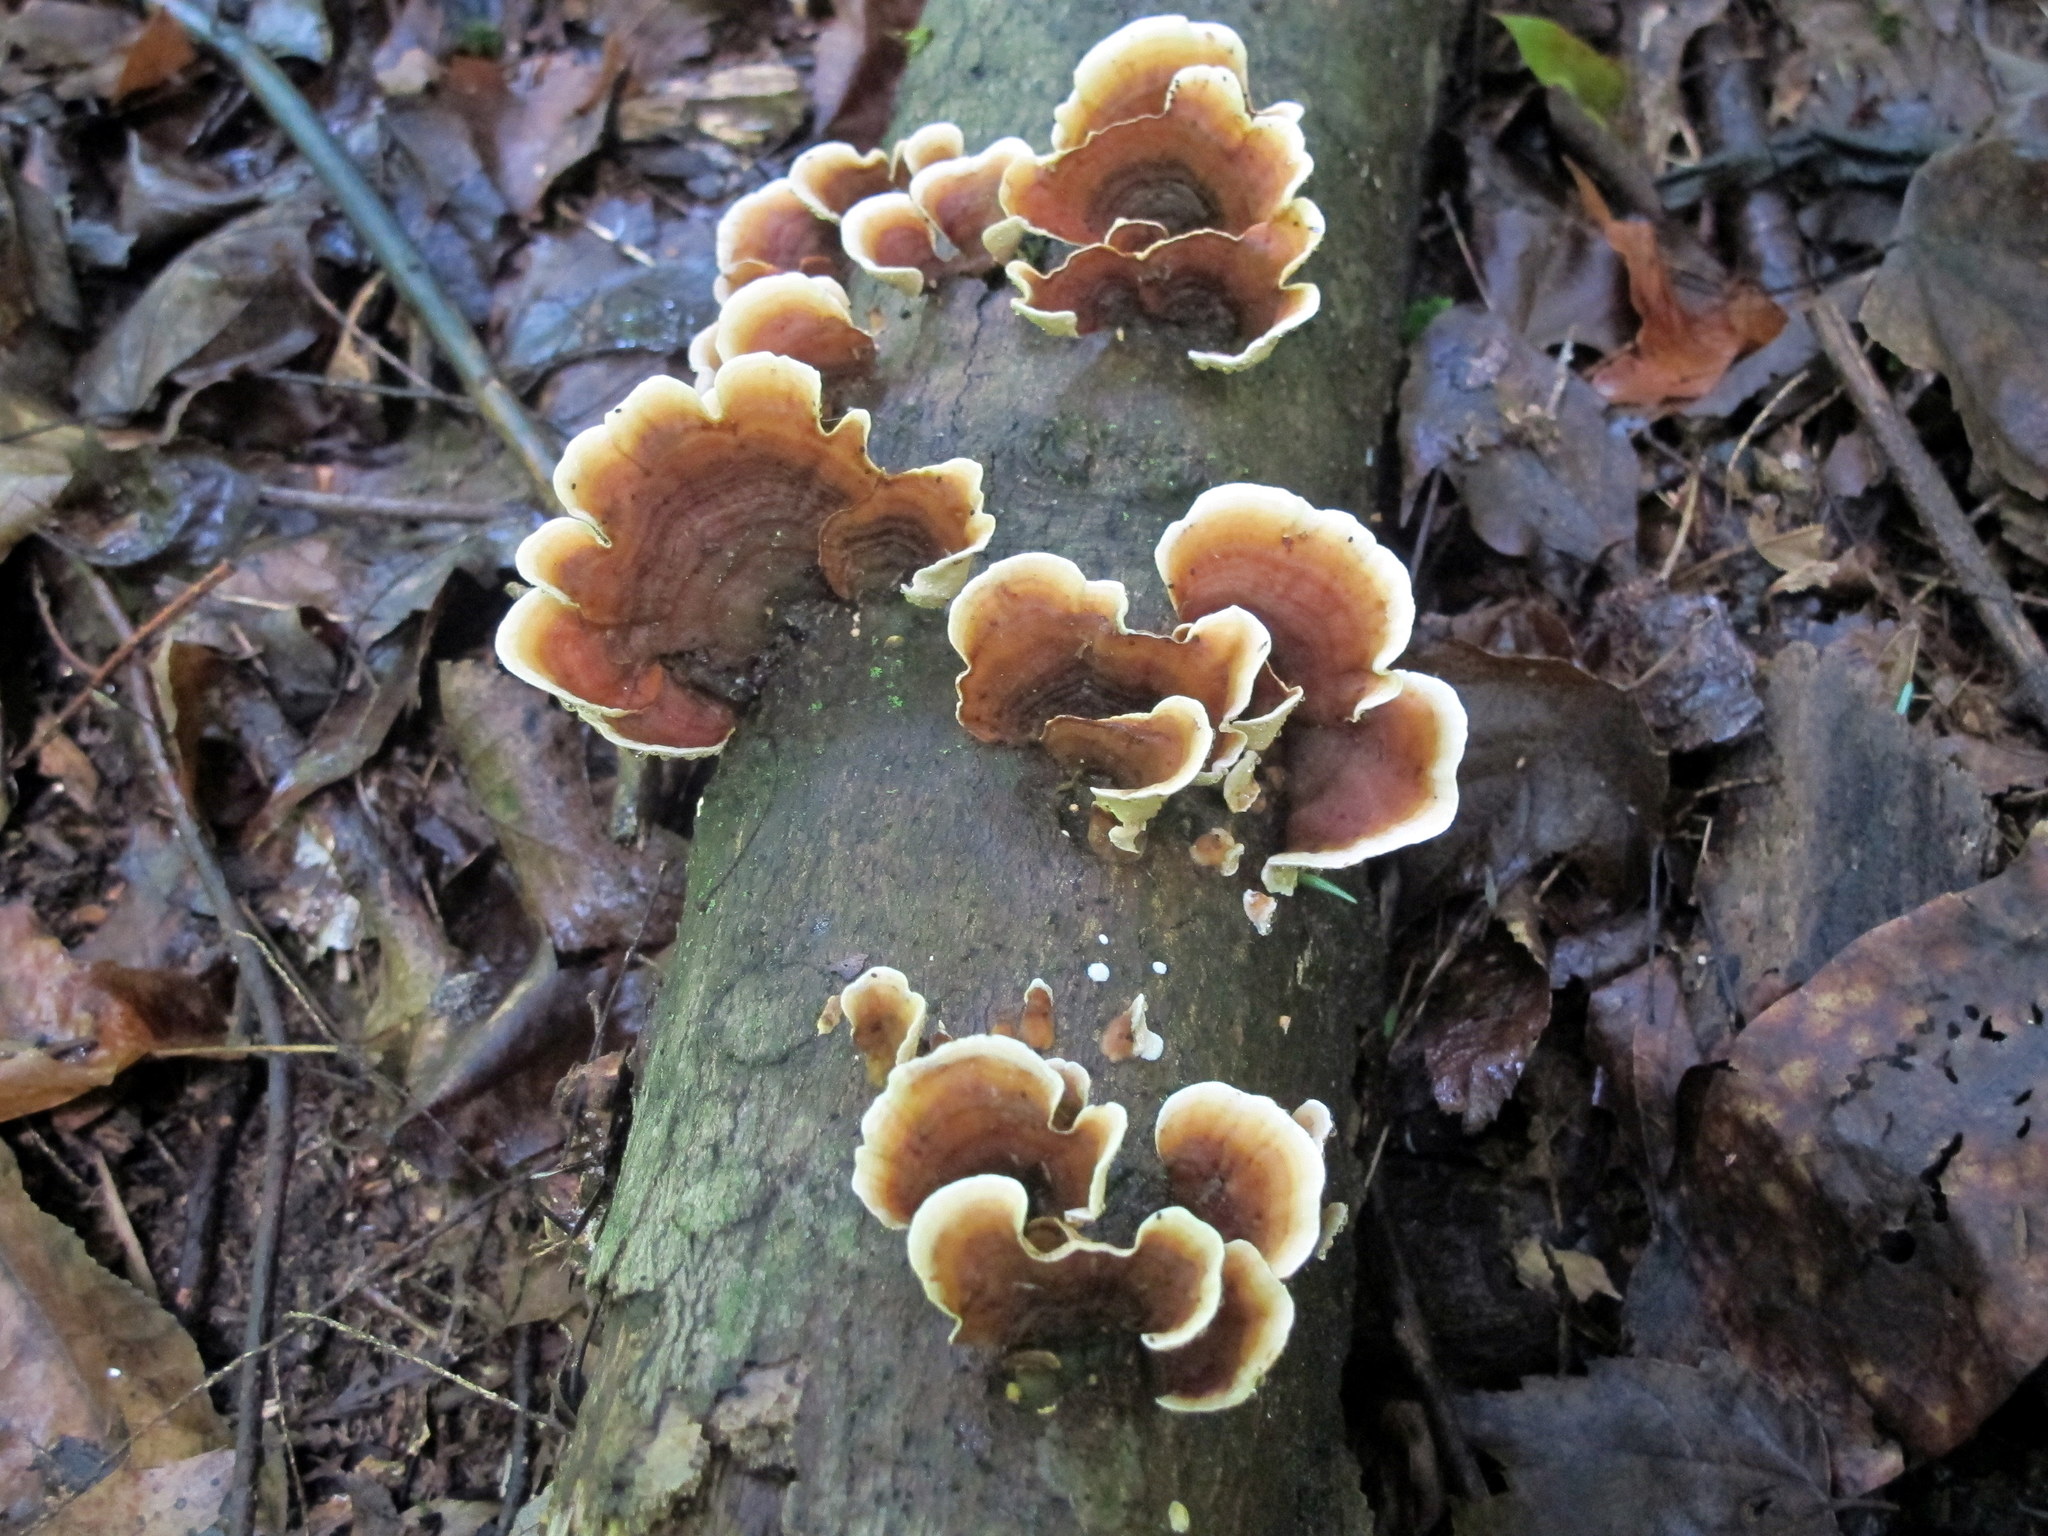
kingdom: Fungi
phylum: Basidiomycota
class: Agaricomycetes
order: Russulales
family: Stereaceae
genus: Stereum
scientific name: Stereum ostrea
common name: False turkeytail
